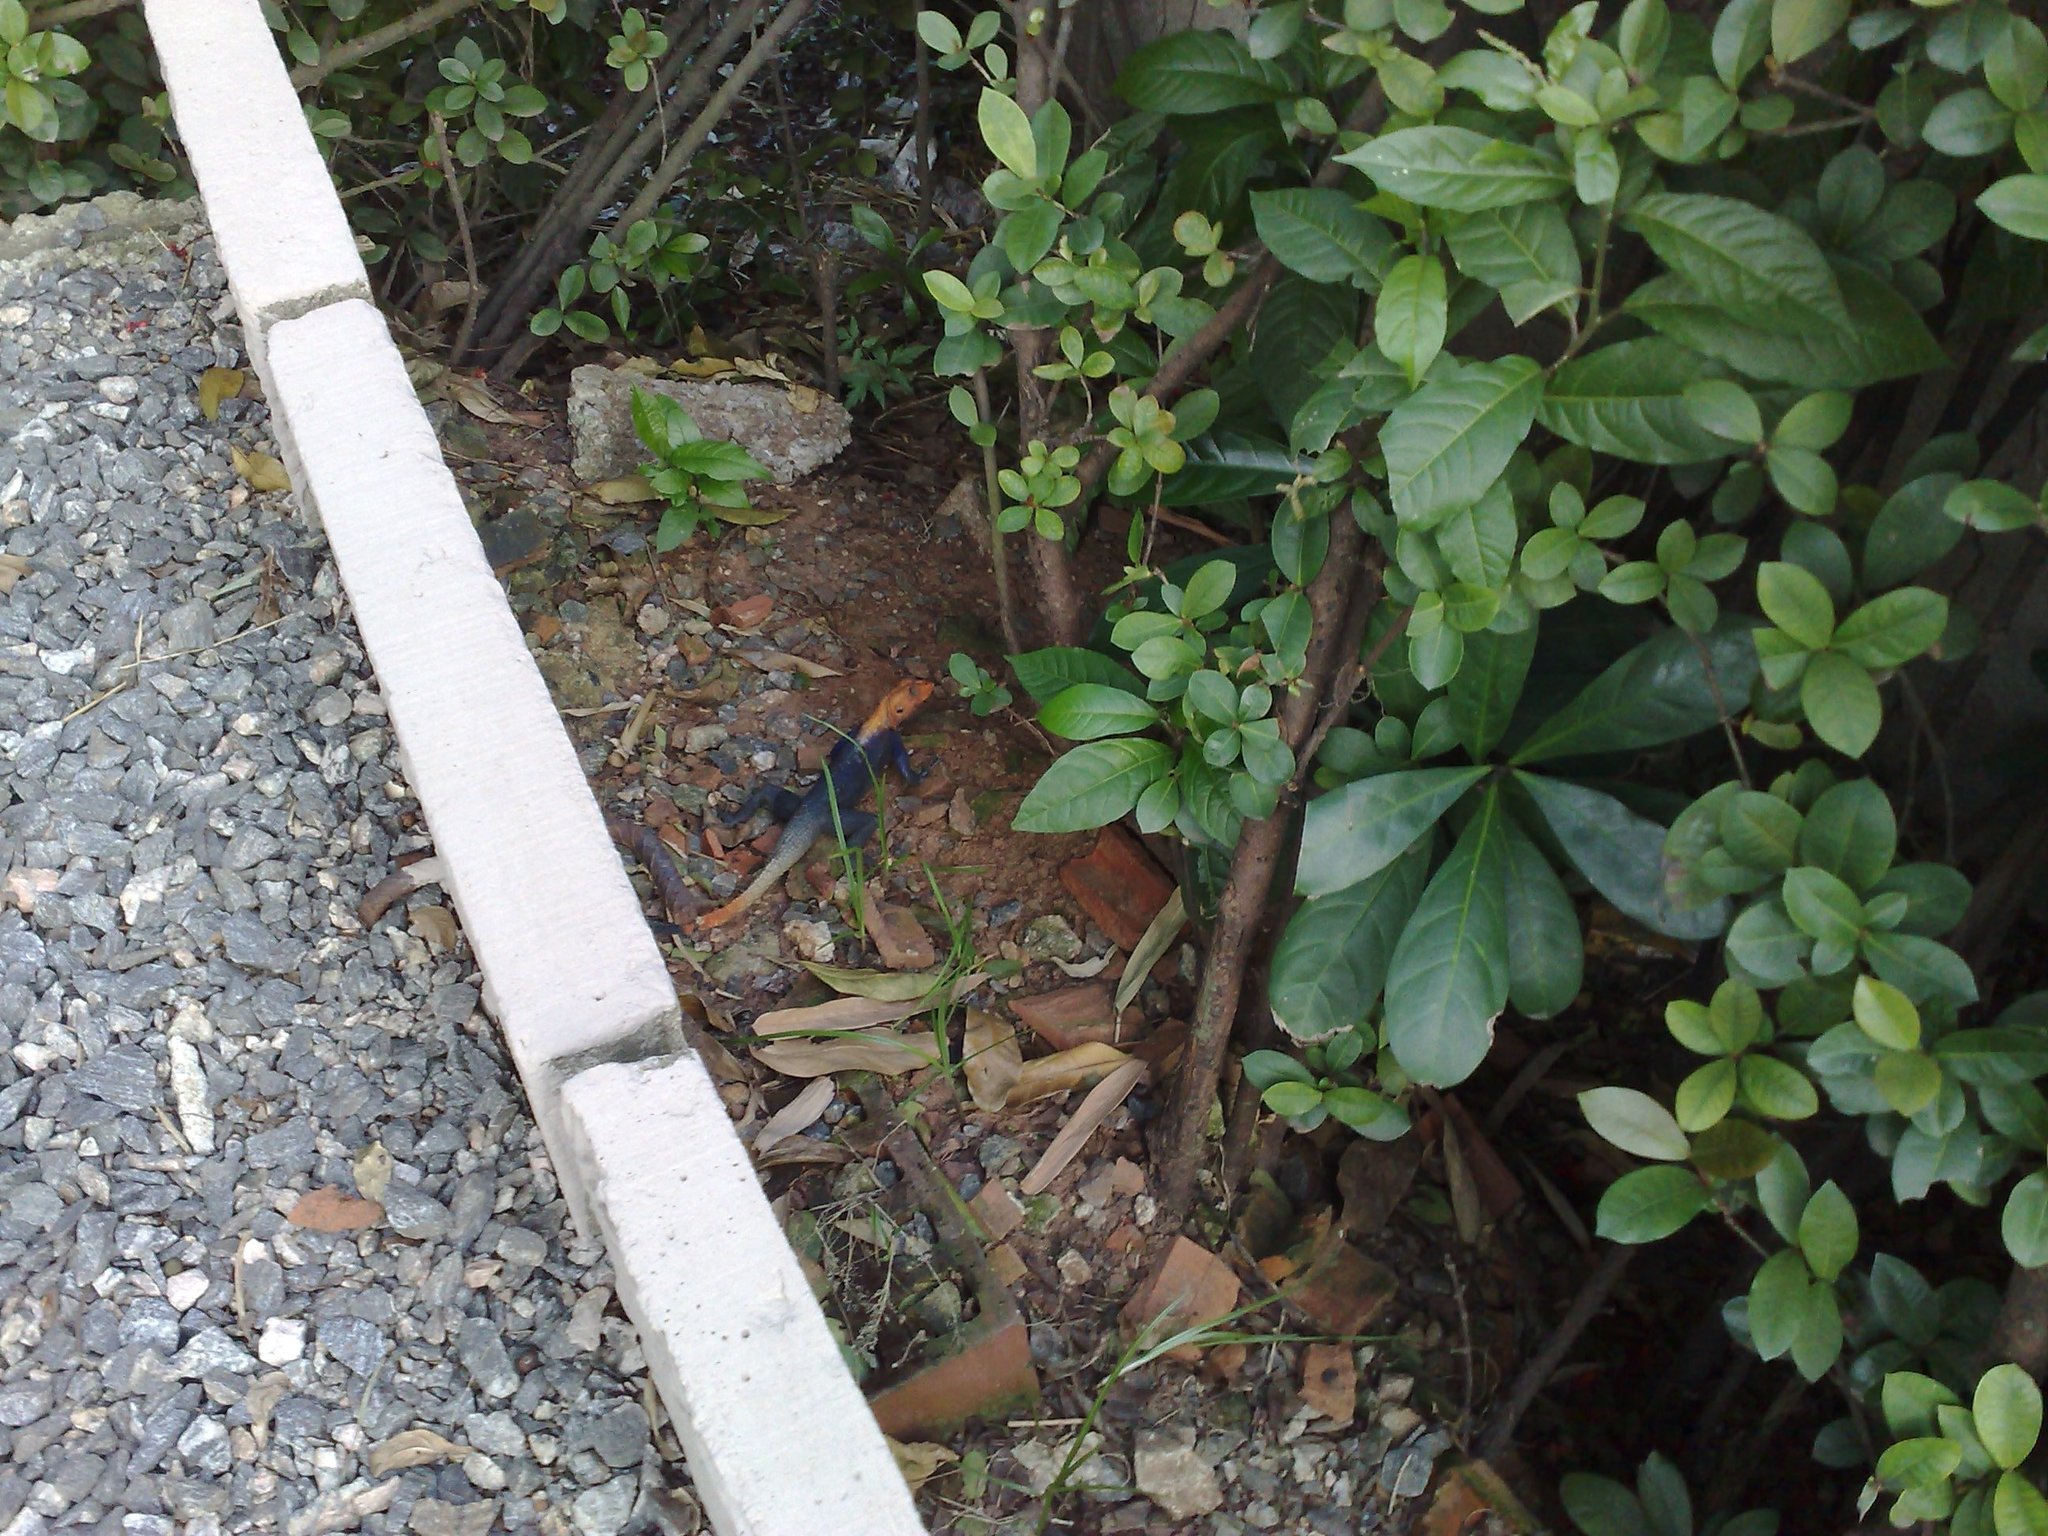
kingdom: Animalia
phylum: Chordata
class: Squamata
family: Agamidae
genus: Agama
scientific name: Agama agama
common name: Common agama
